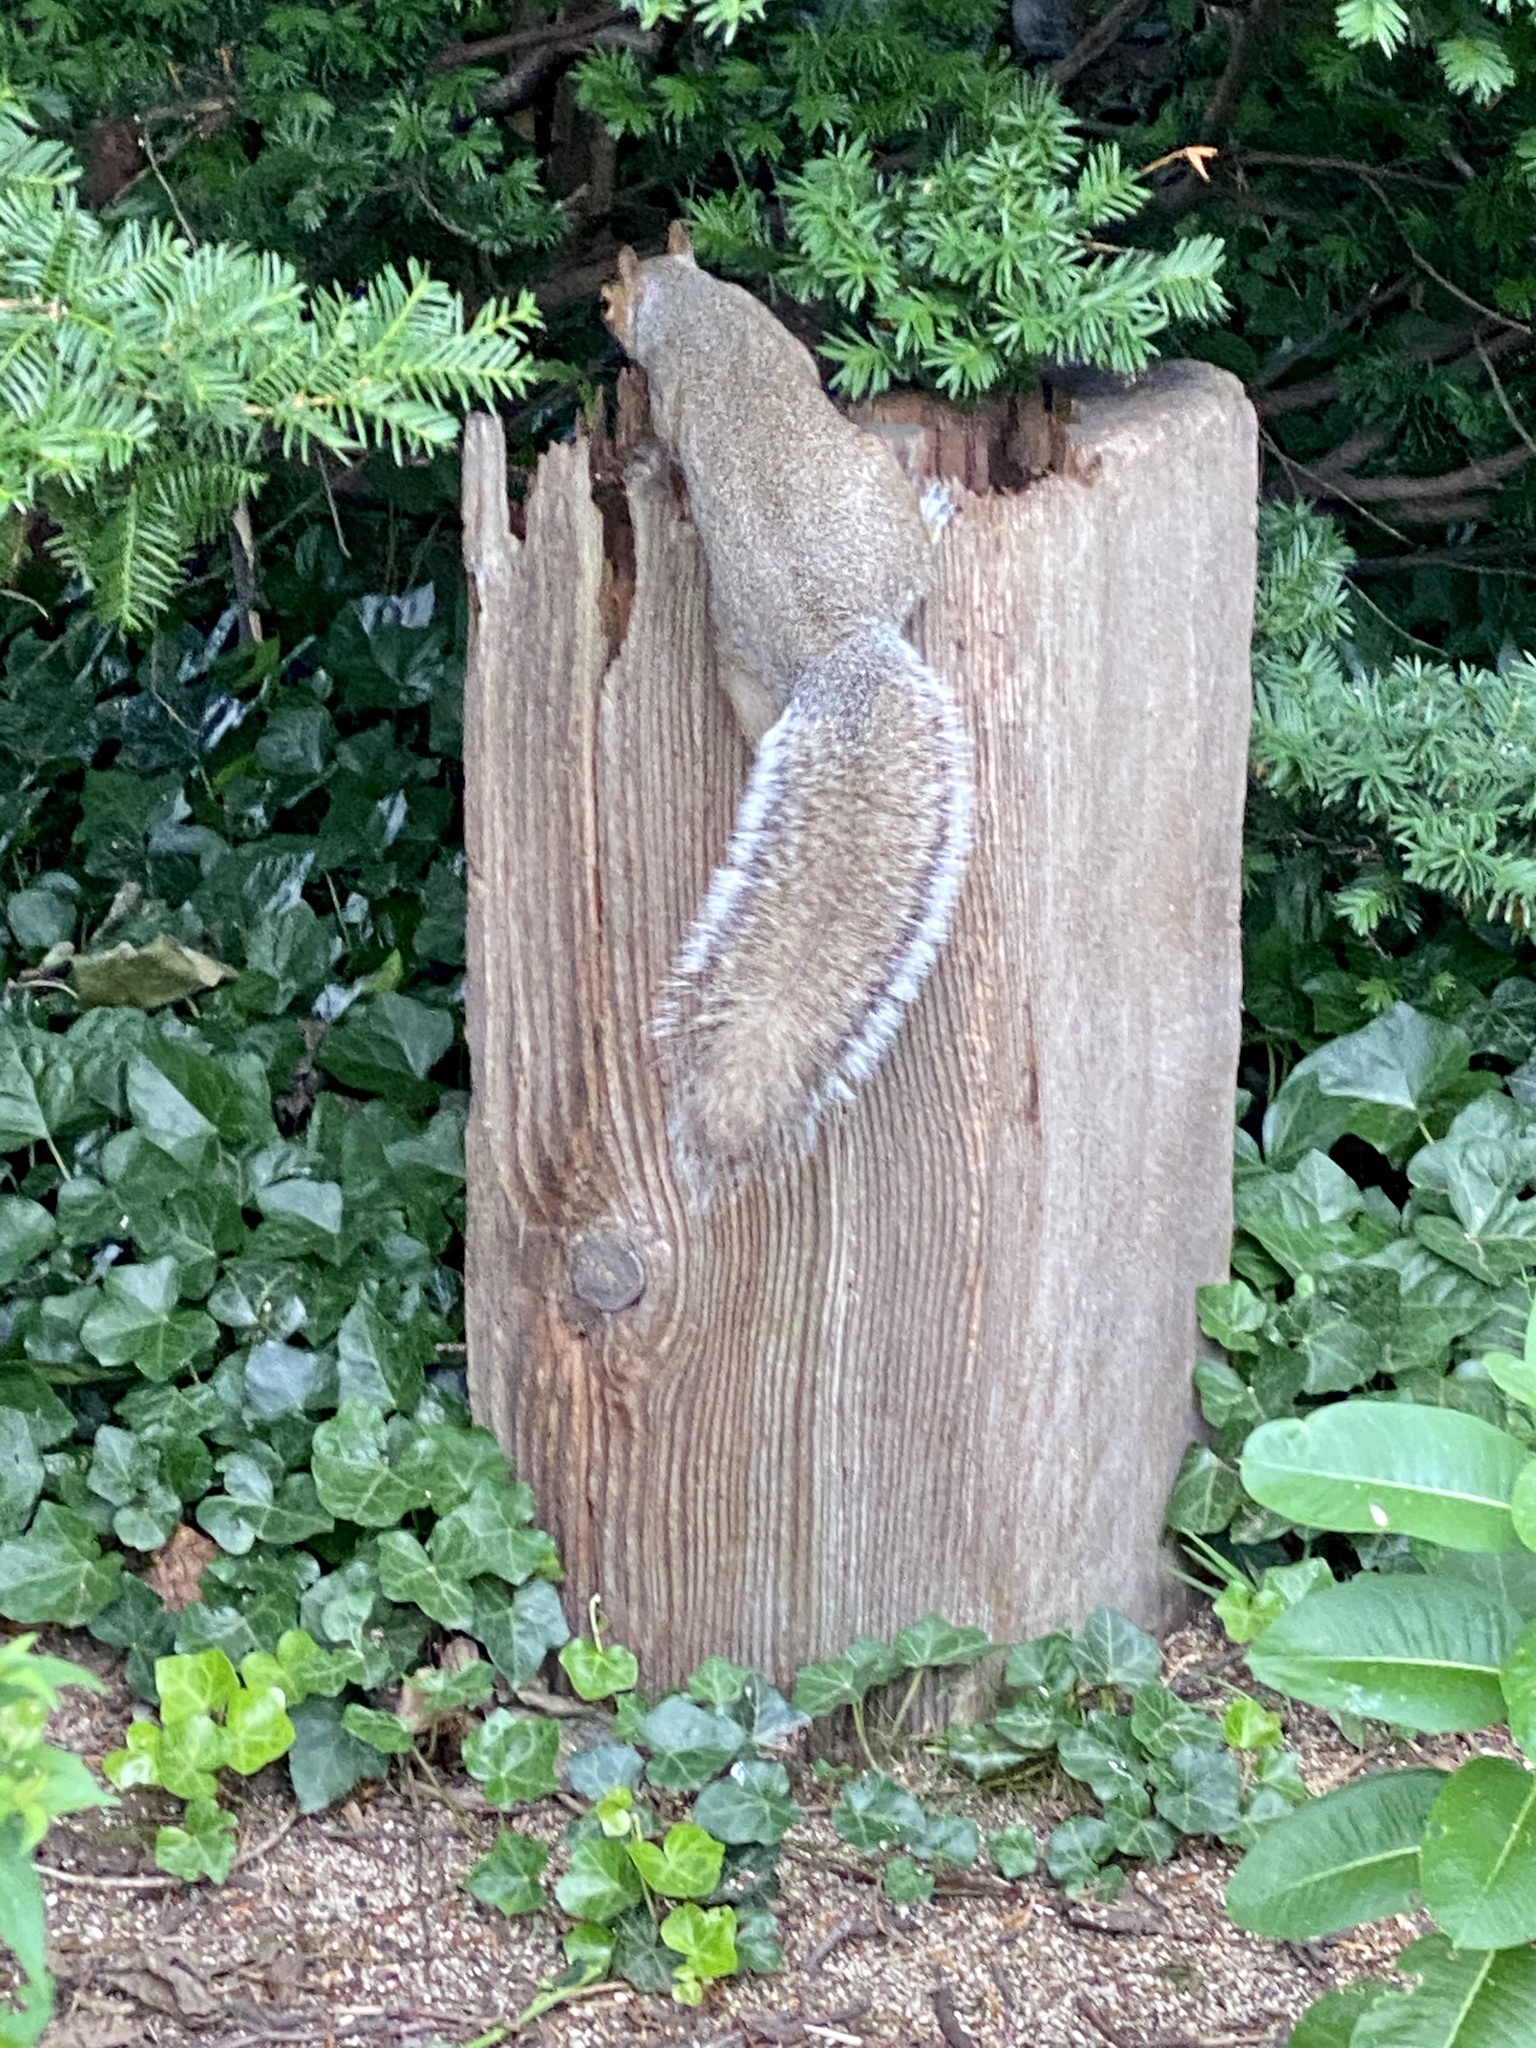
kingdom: Animalia
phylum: Chordata
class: Mammalia
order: Rodentia
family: Sciuridae
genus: Sciurus
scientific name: Sciurus carolinensis
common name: Eastern gray squirrel
